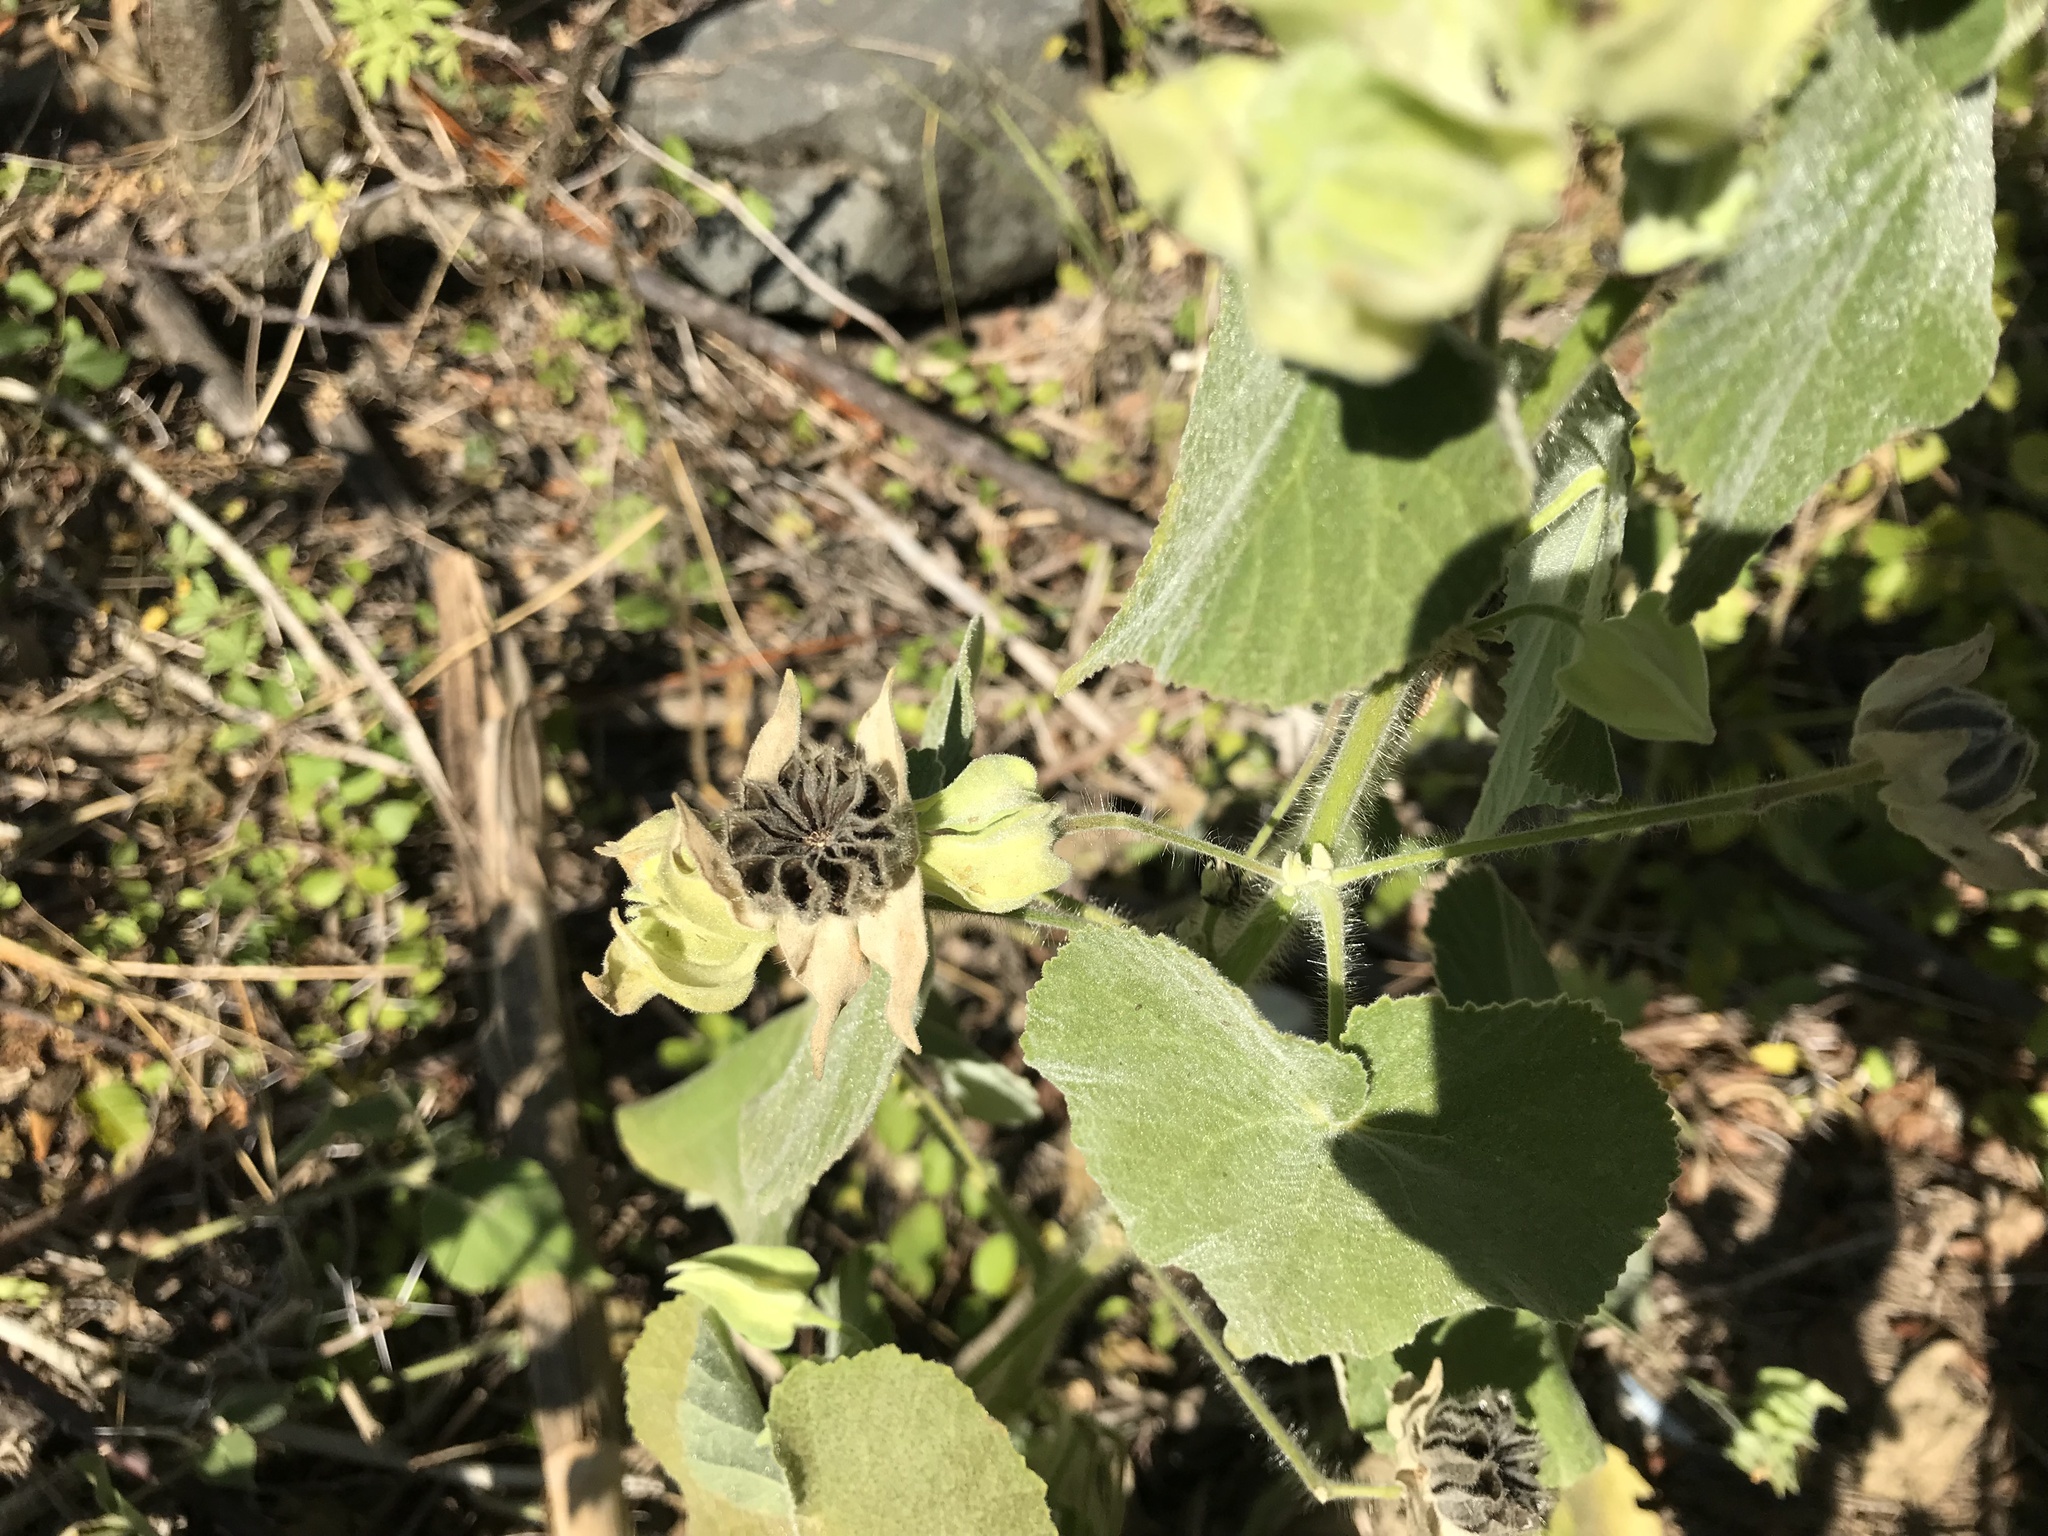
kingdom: Plantae
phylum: Tracheophyta
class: Magnoliopsida
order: Malvales
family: Malvaceae
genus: Abutilon
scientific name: Abutilon grandifolium
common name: Hairy abutilon
